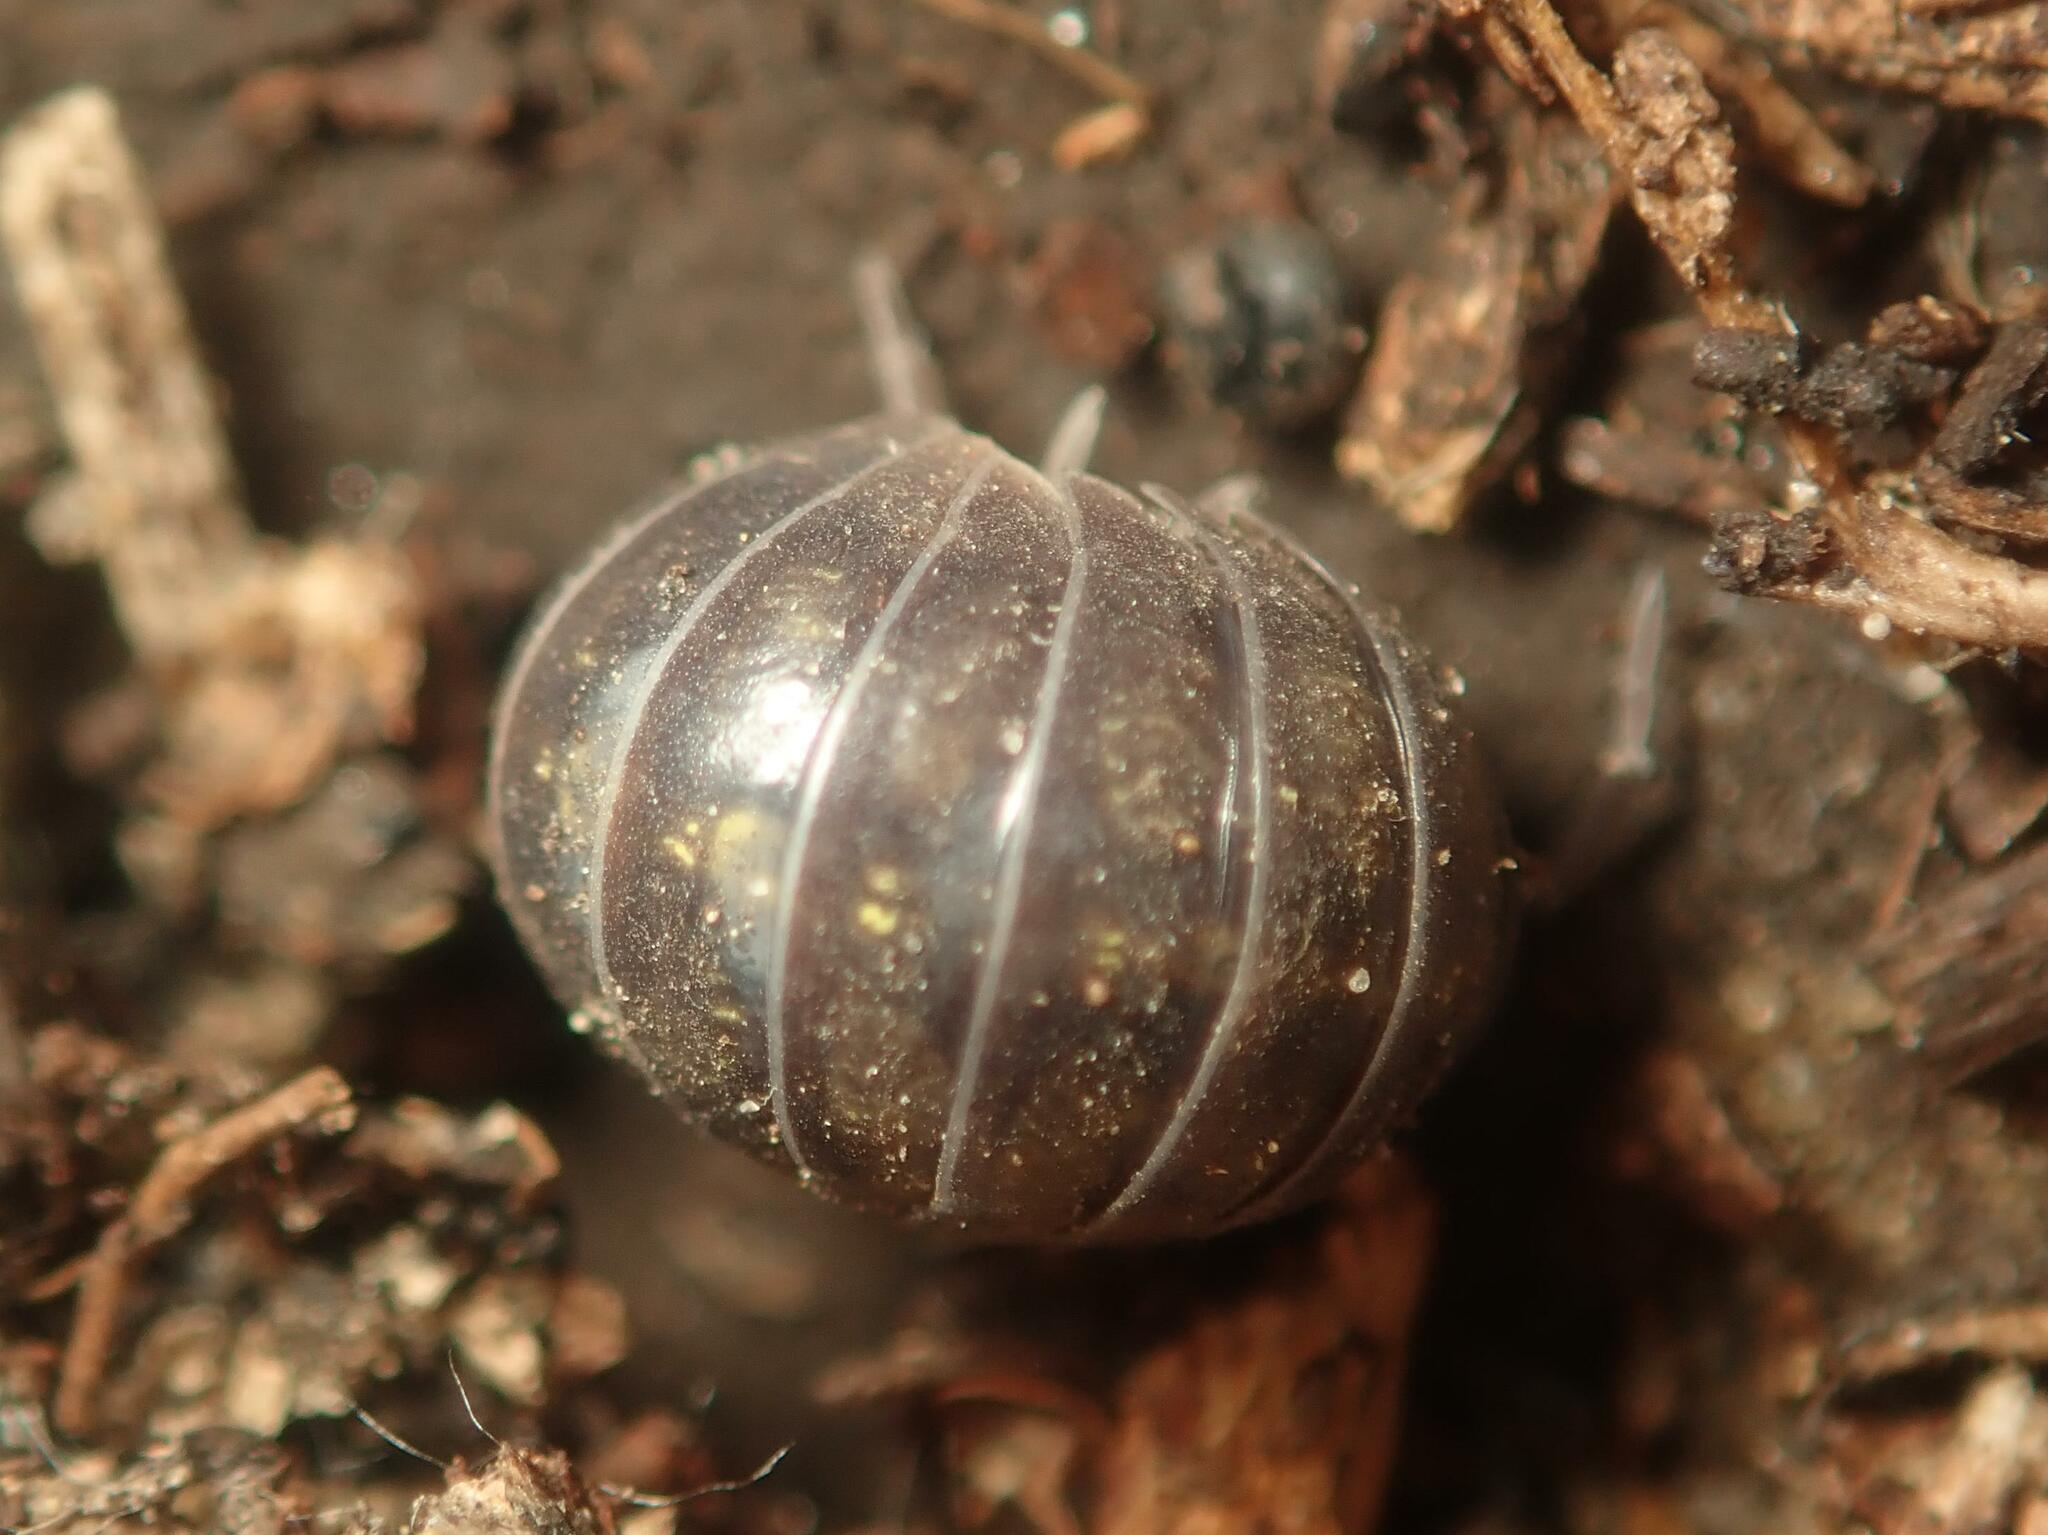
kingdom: Animalia
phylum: Arthropoda
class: Malacostraca
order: Isopoda
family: Armadillidiidae
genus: Armadillidium
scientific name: Armadillidium vulgare
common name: Common pill woodlouse
